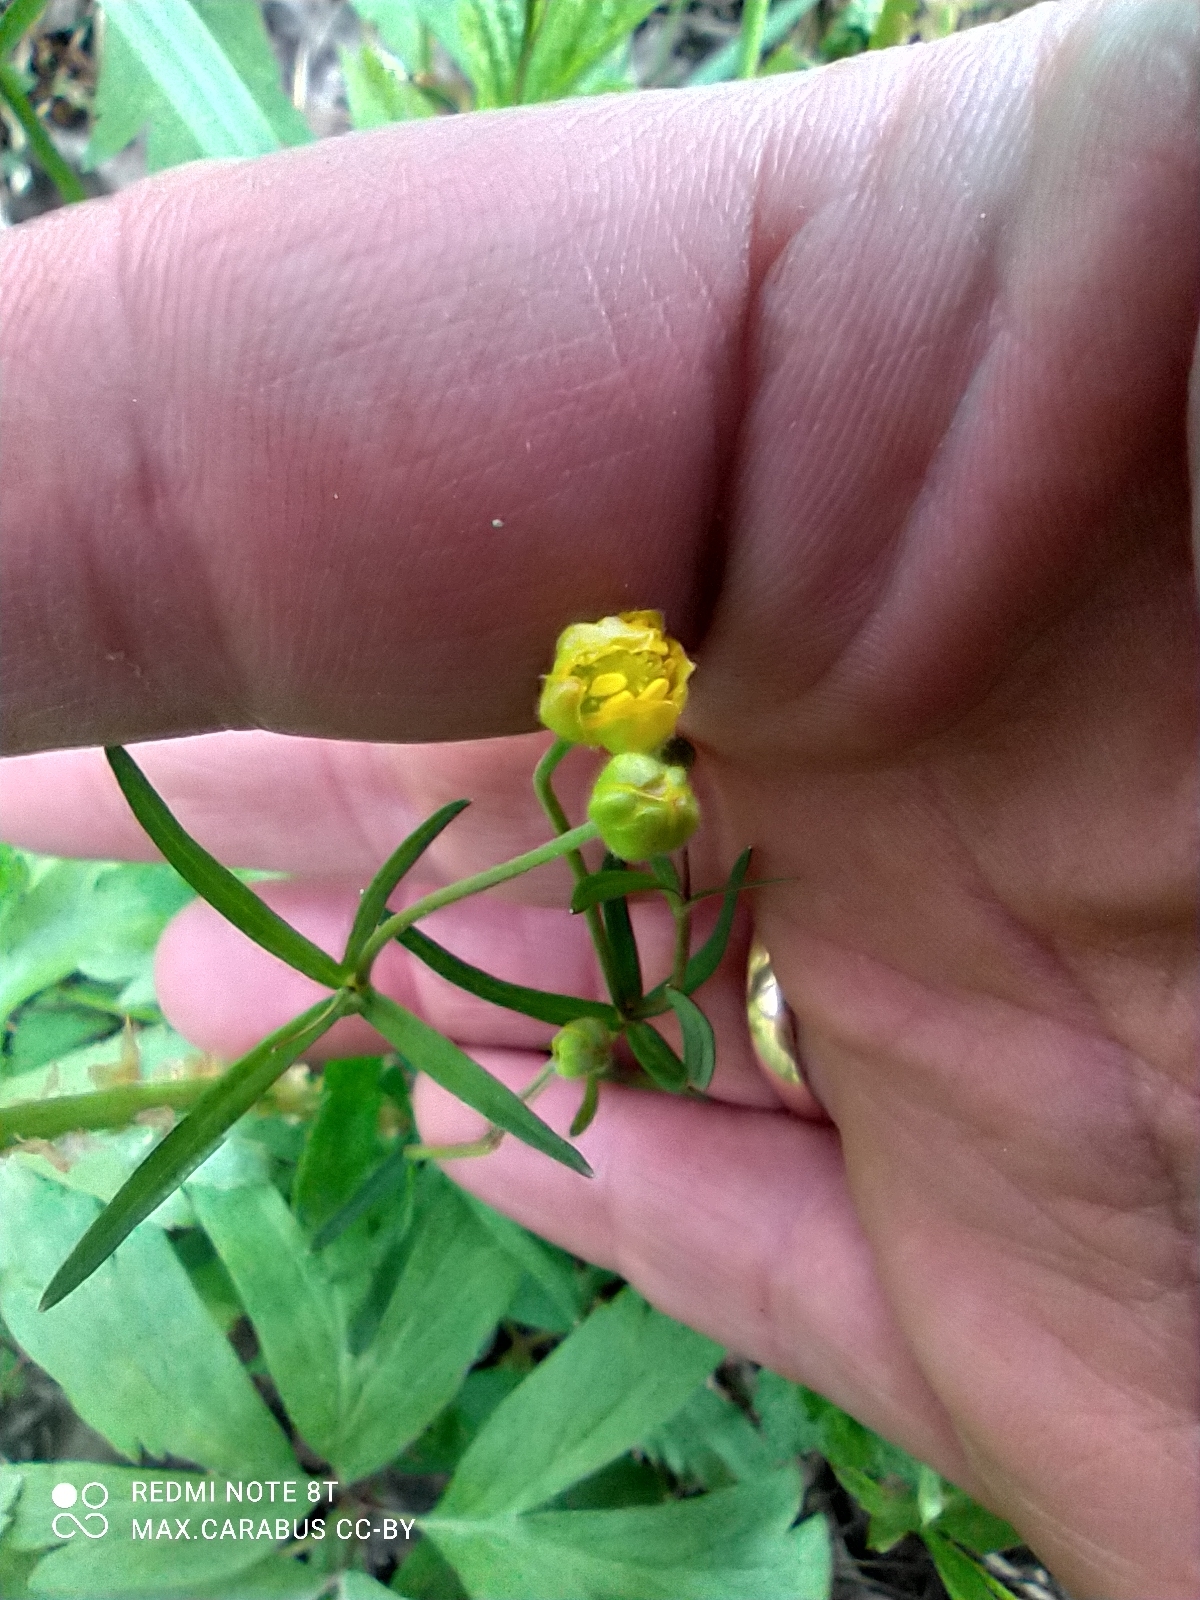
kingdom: Plantae
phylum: Tracheophyta
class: Magnoliopsida
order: Ranunculales
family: Ranunculaceae
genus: Ranunculus
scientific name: Ranunculus auricomus
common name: Goldilocks buttercup
